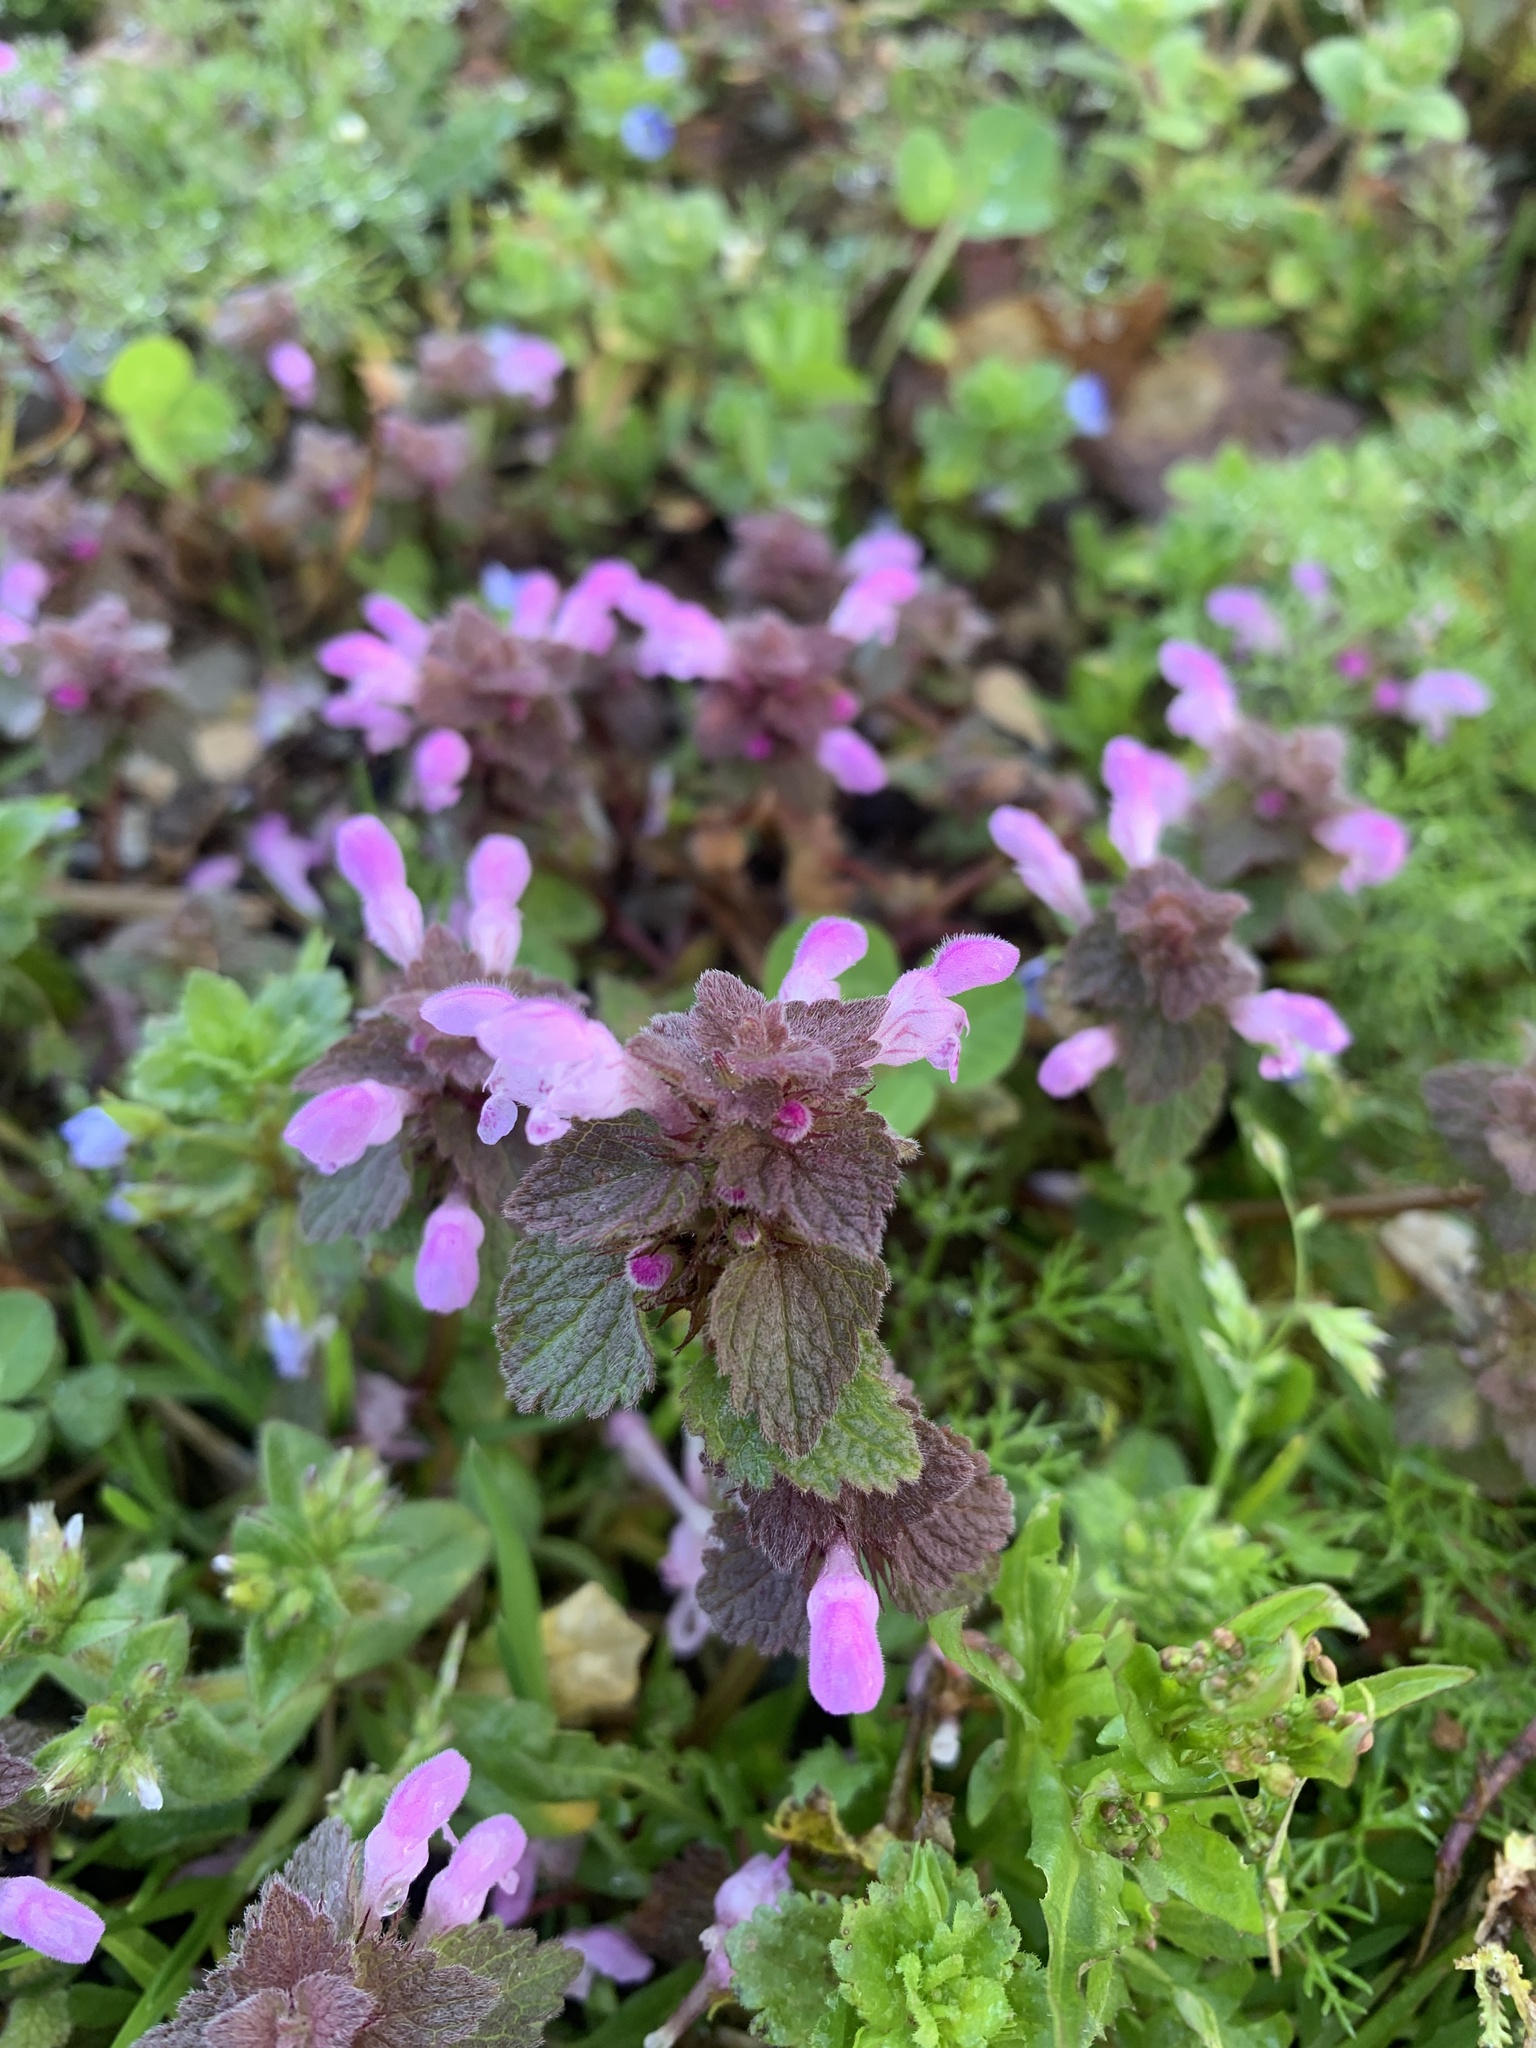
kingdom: Plantae
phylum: Tracheophyta
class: Magnoliopsida
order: Lamiales
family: Lamiaceae
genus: Lamium
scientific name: Lamium purpureum
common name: Red dead-nettle
